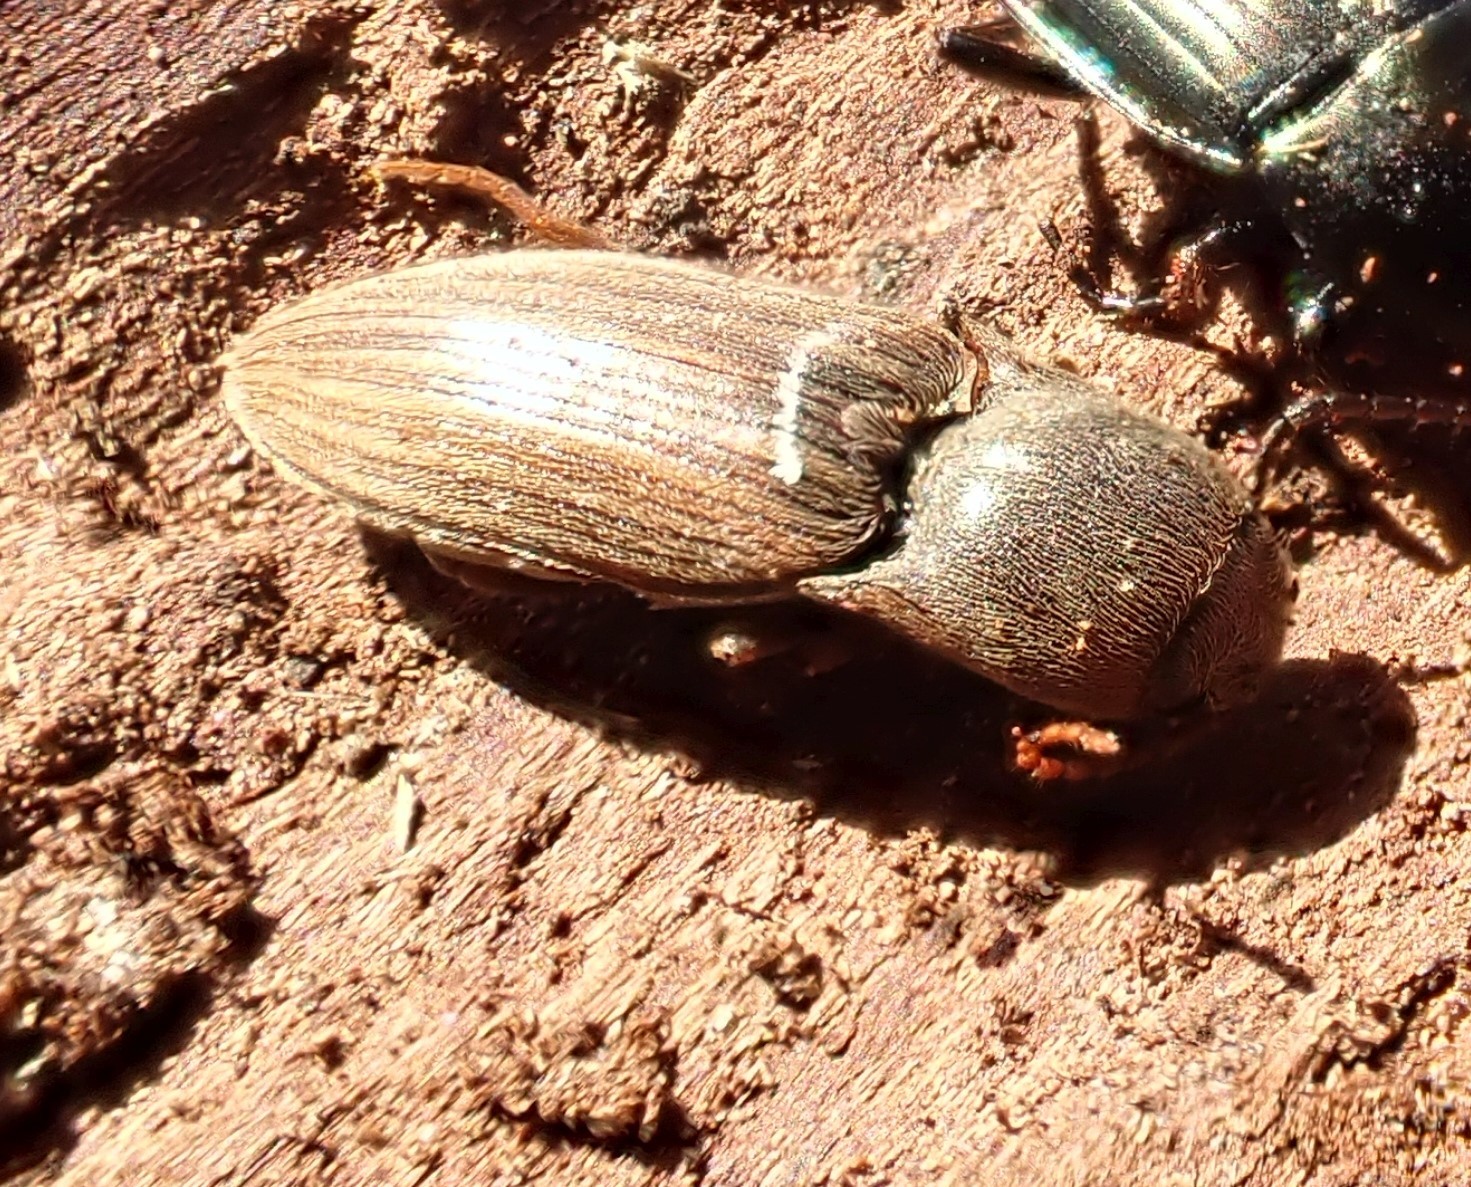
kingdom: Animalia
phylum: Arthropoda
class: Insecta
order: Coleoptera
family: Elateridae
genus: Agriotes
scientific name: Agriotes lineatus
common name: Lined click beetle
